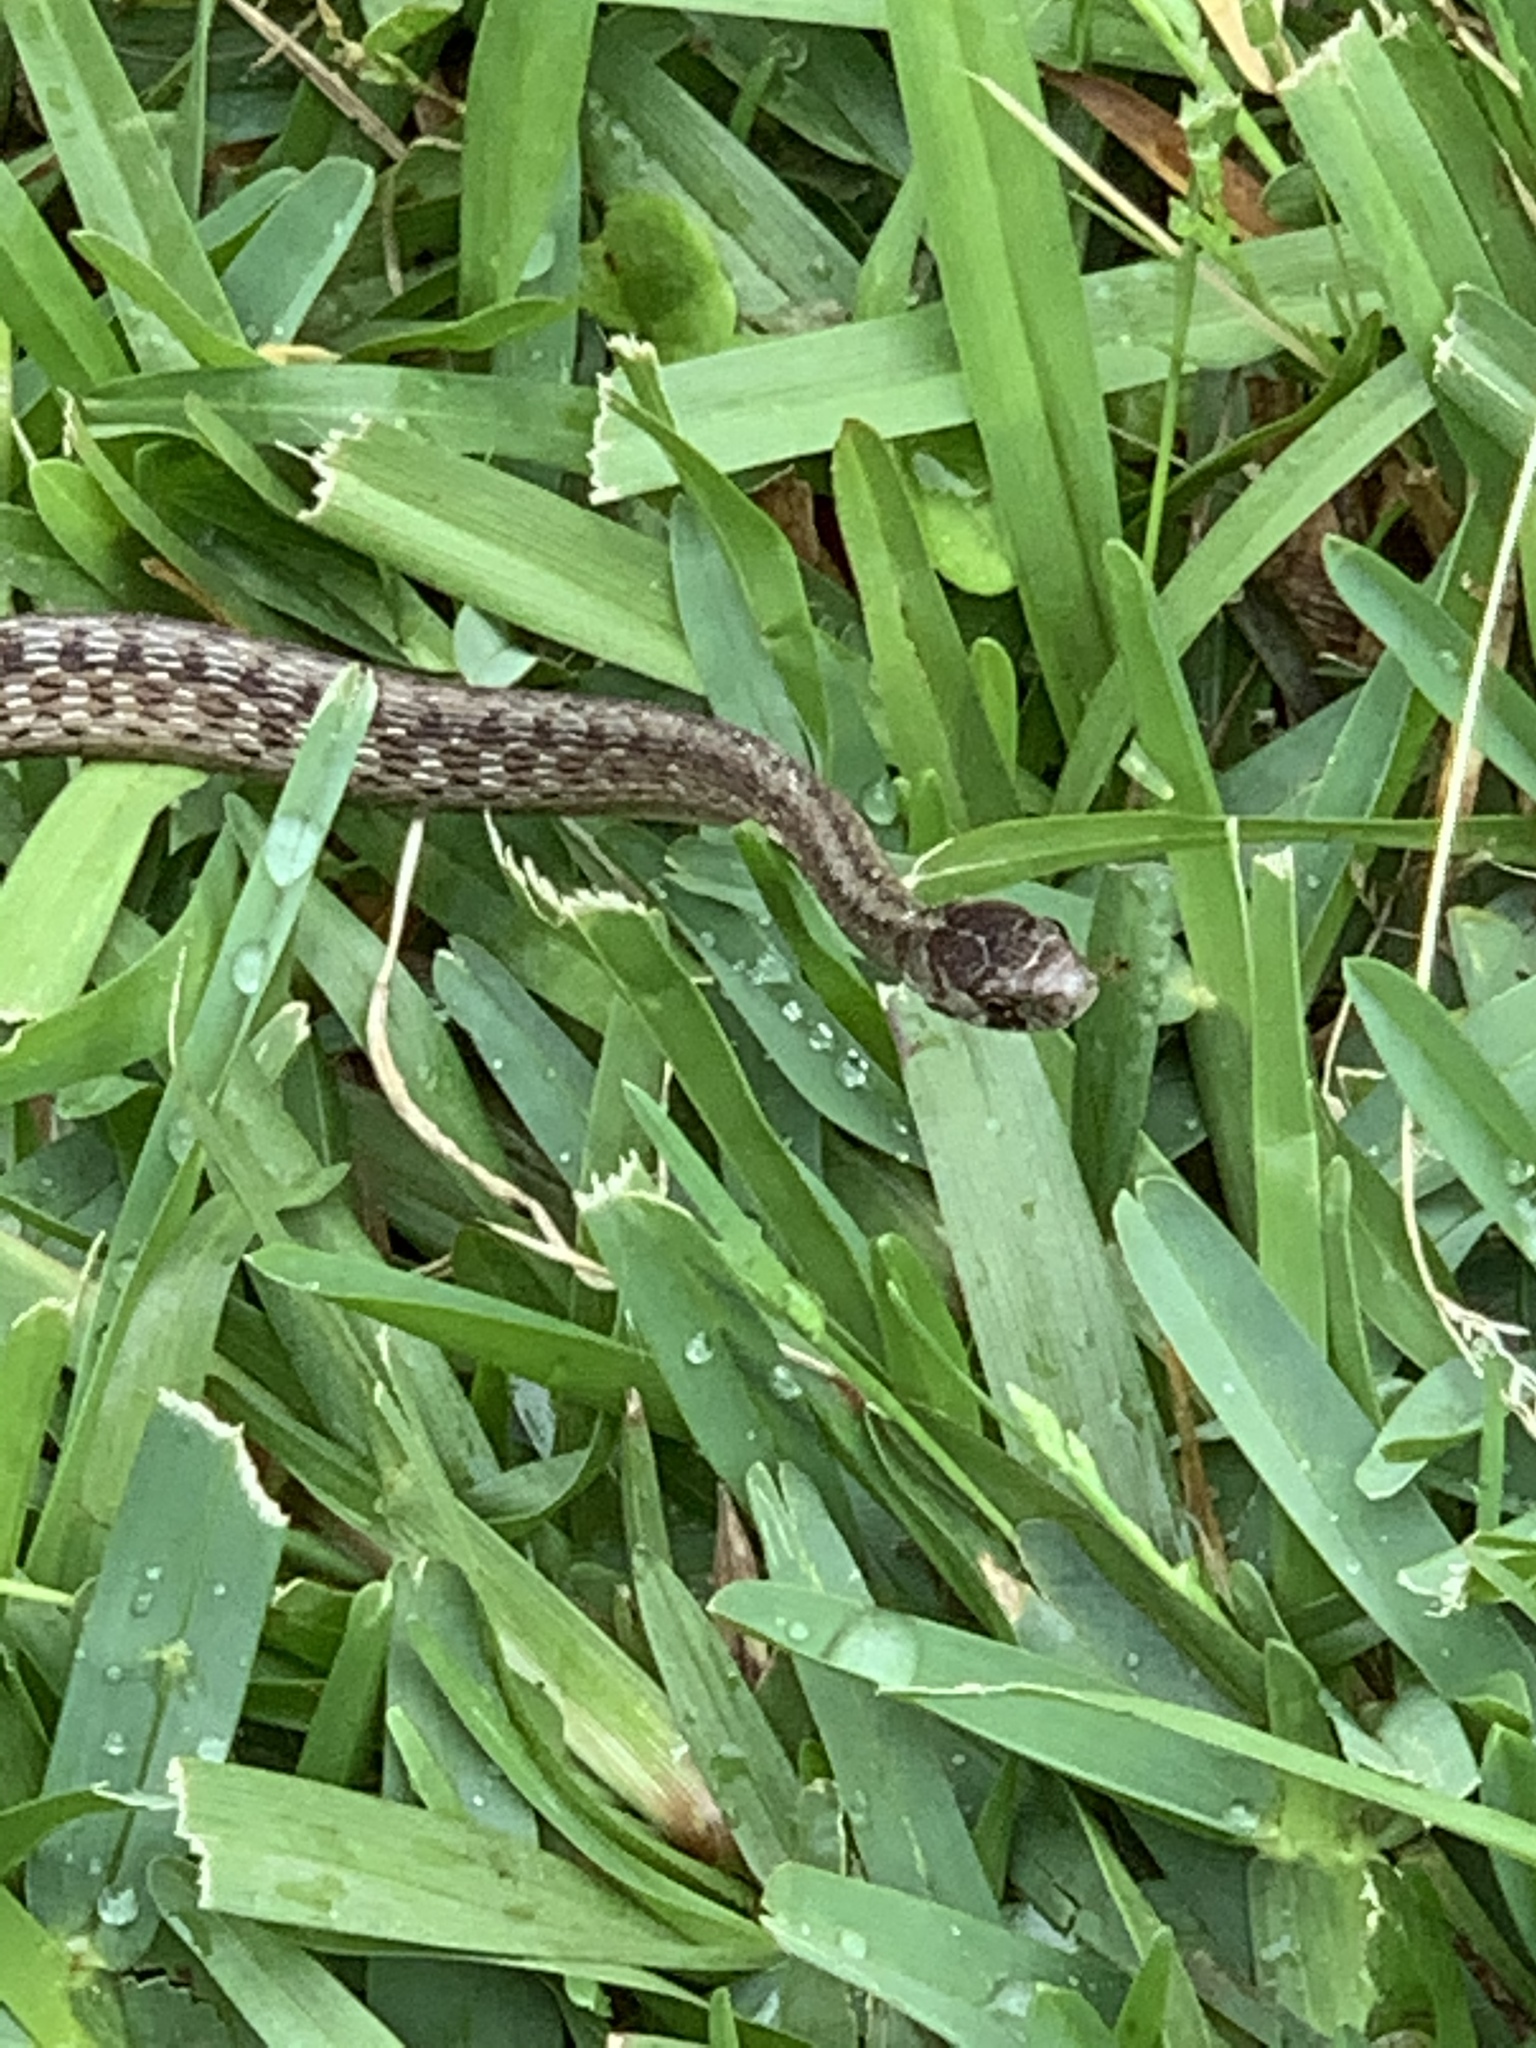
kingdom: Animalia
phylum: Chordata
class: Squamata
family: Colubridae
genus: Storeria
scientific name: Storeria dekayi
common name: (dekay’s) brown snake
